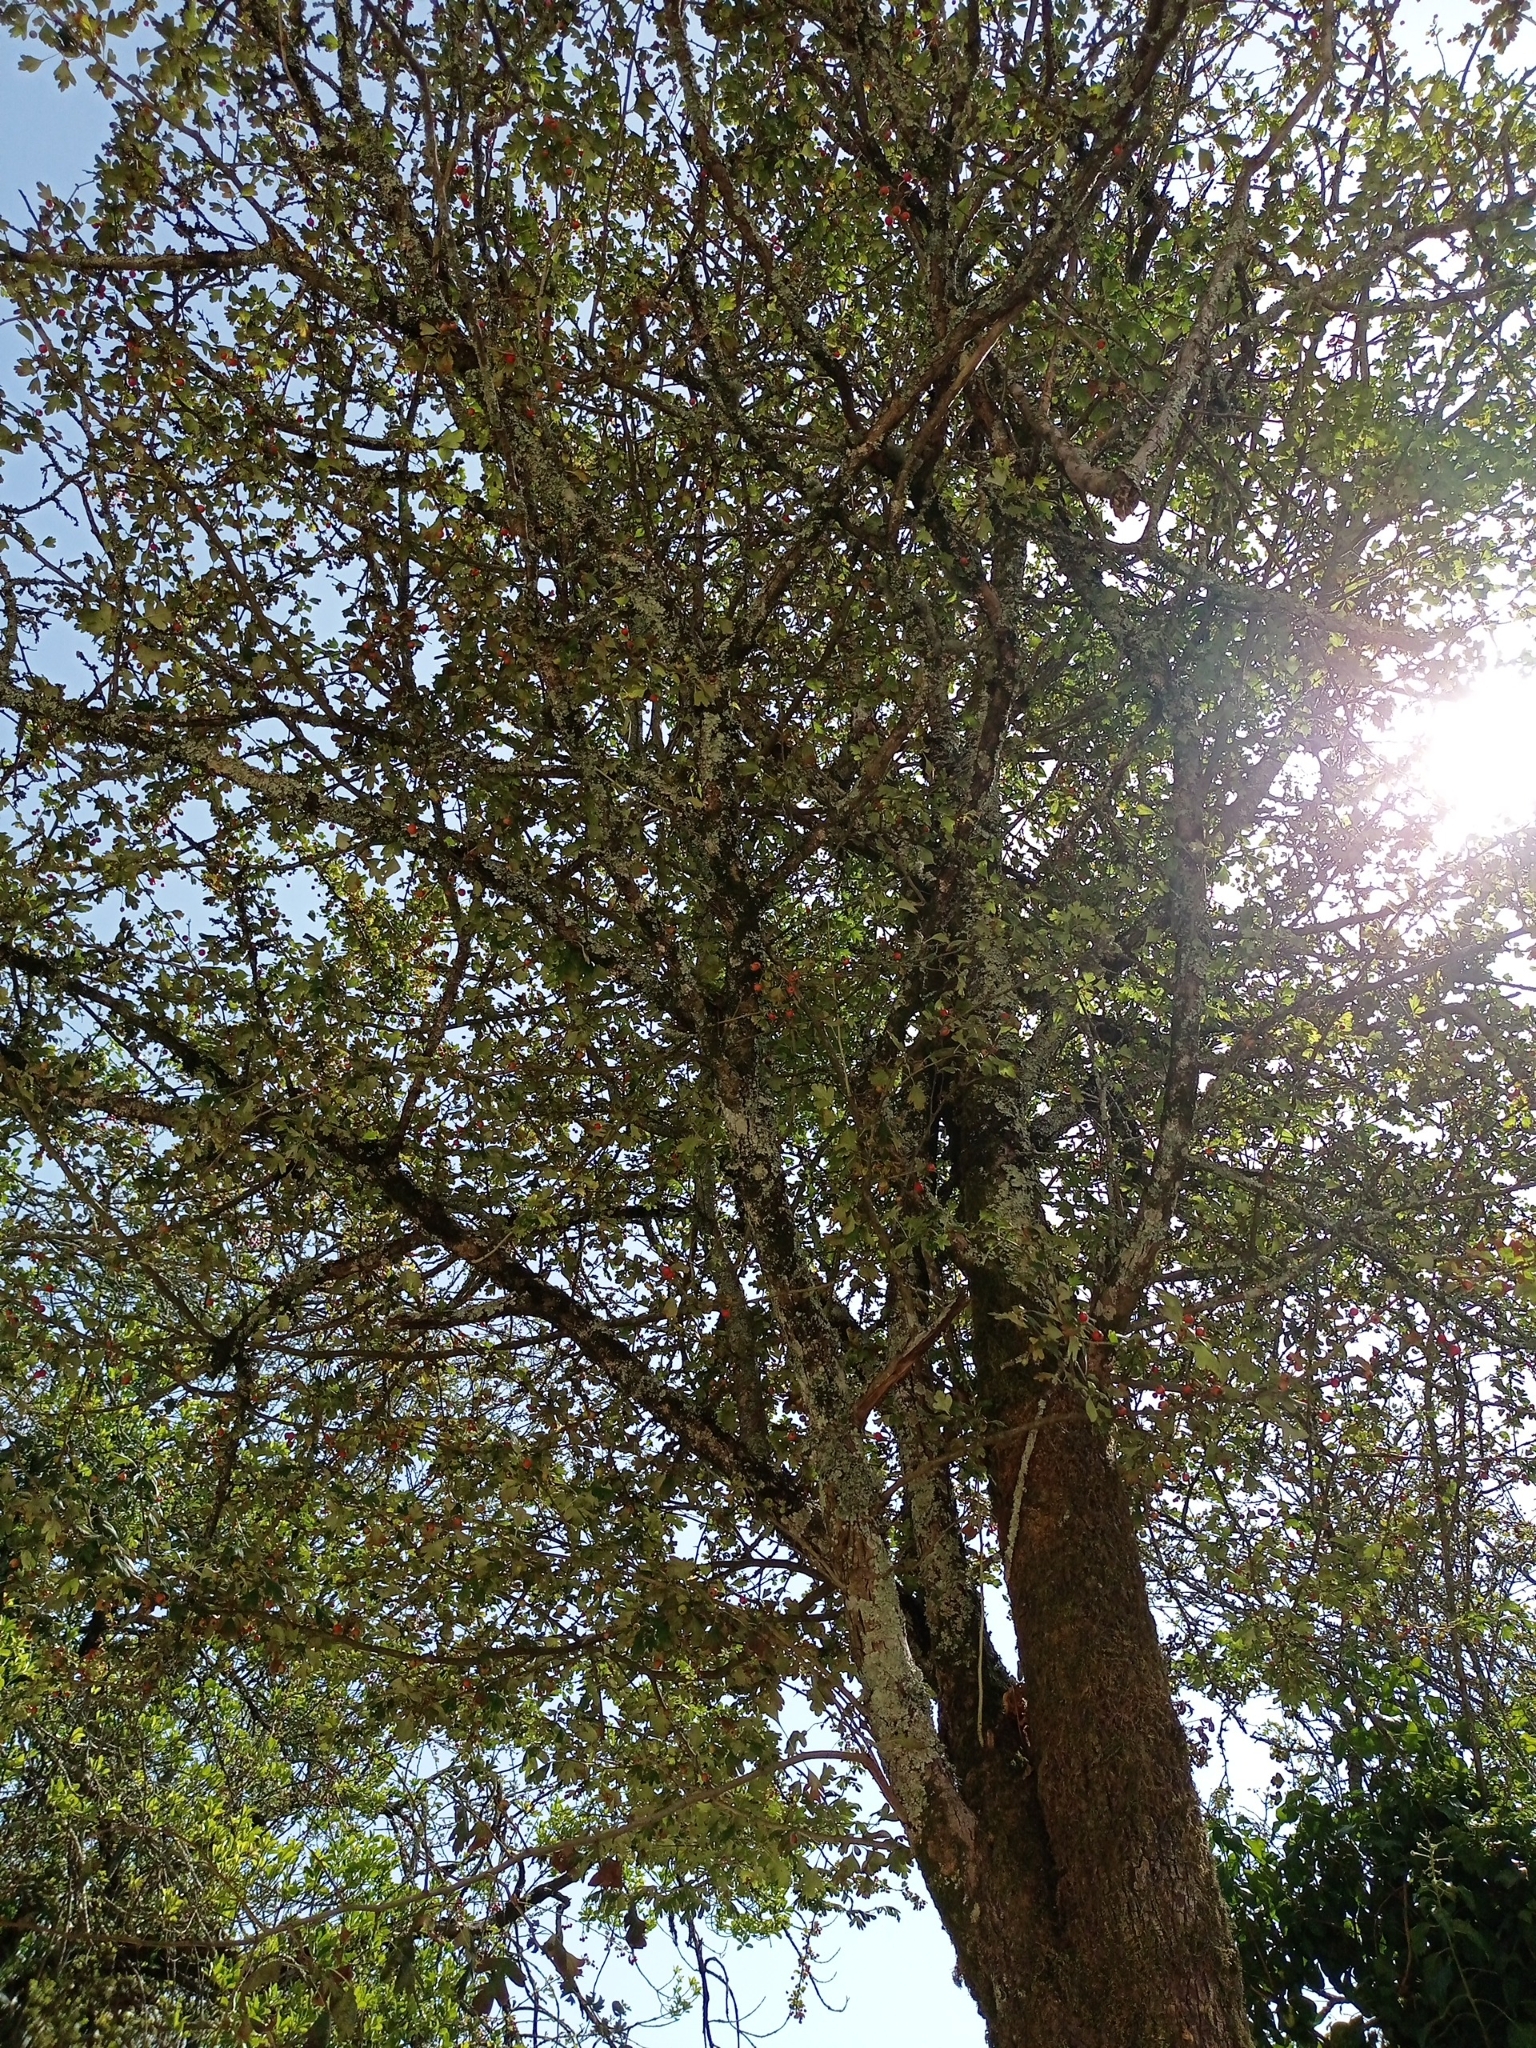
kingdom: Plantae
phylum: Tracheophyta
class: Magnoliopsida
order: Rosales
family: Rosaceae
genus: Crataegus
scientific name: Crataegus monogyna
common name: Hawthorn
